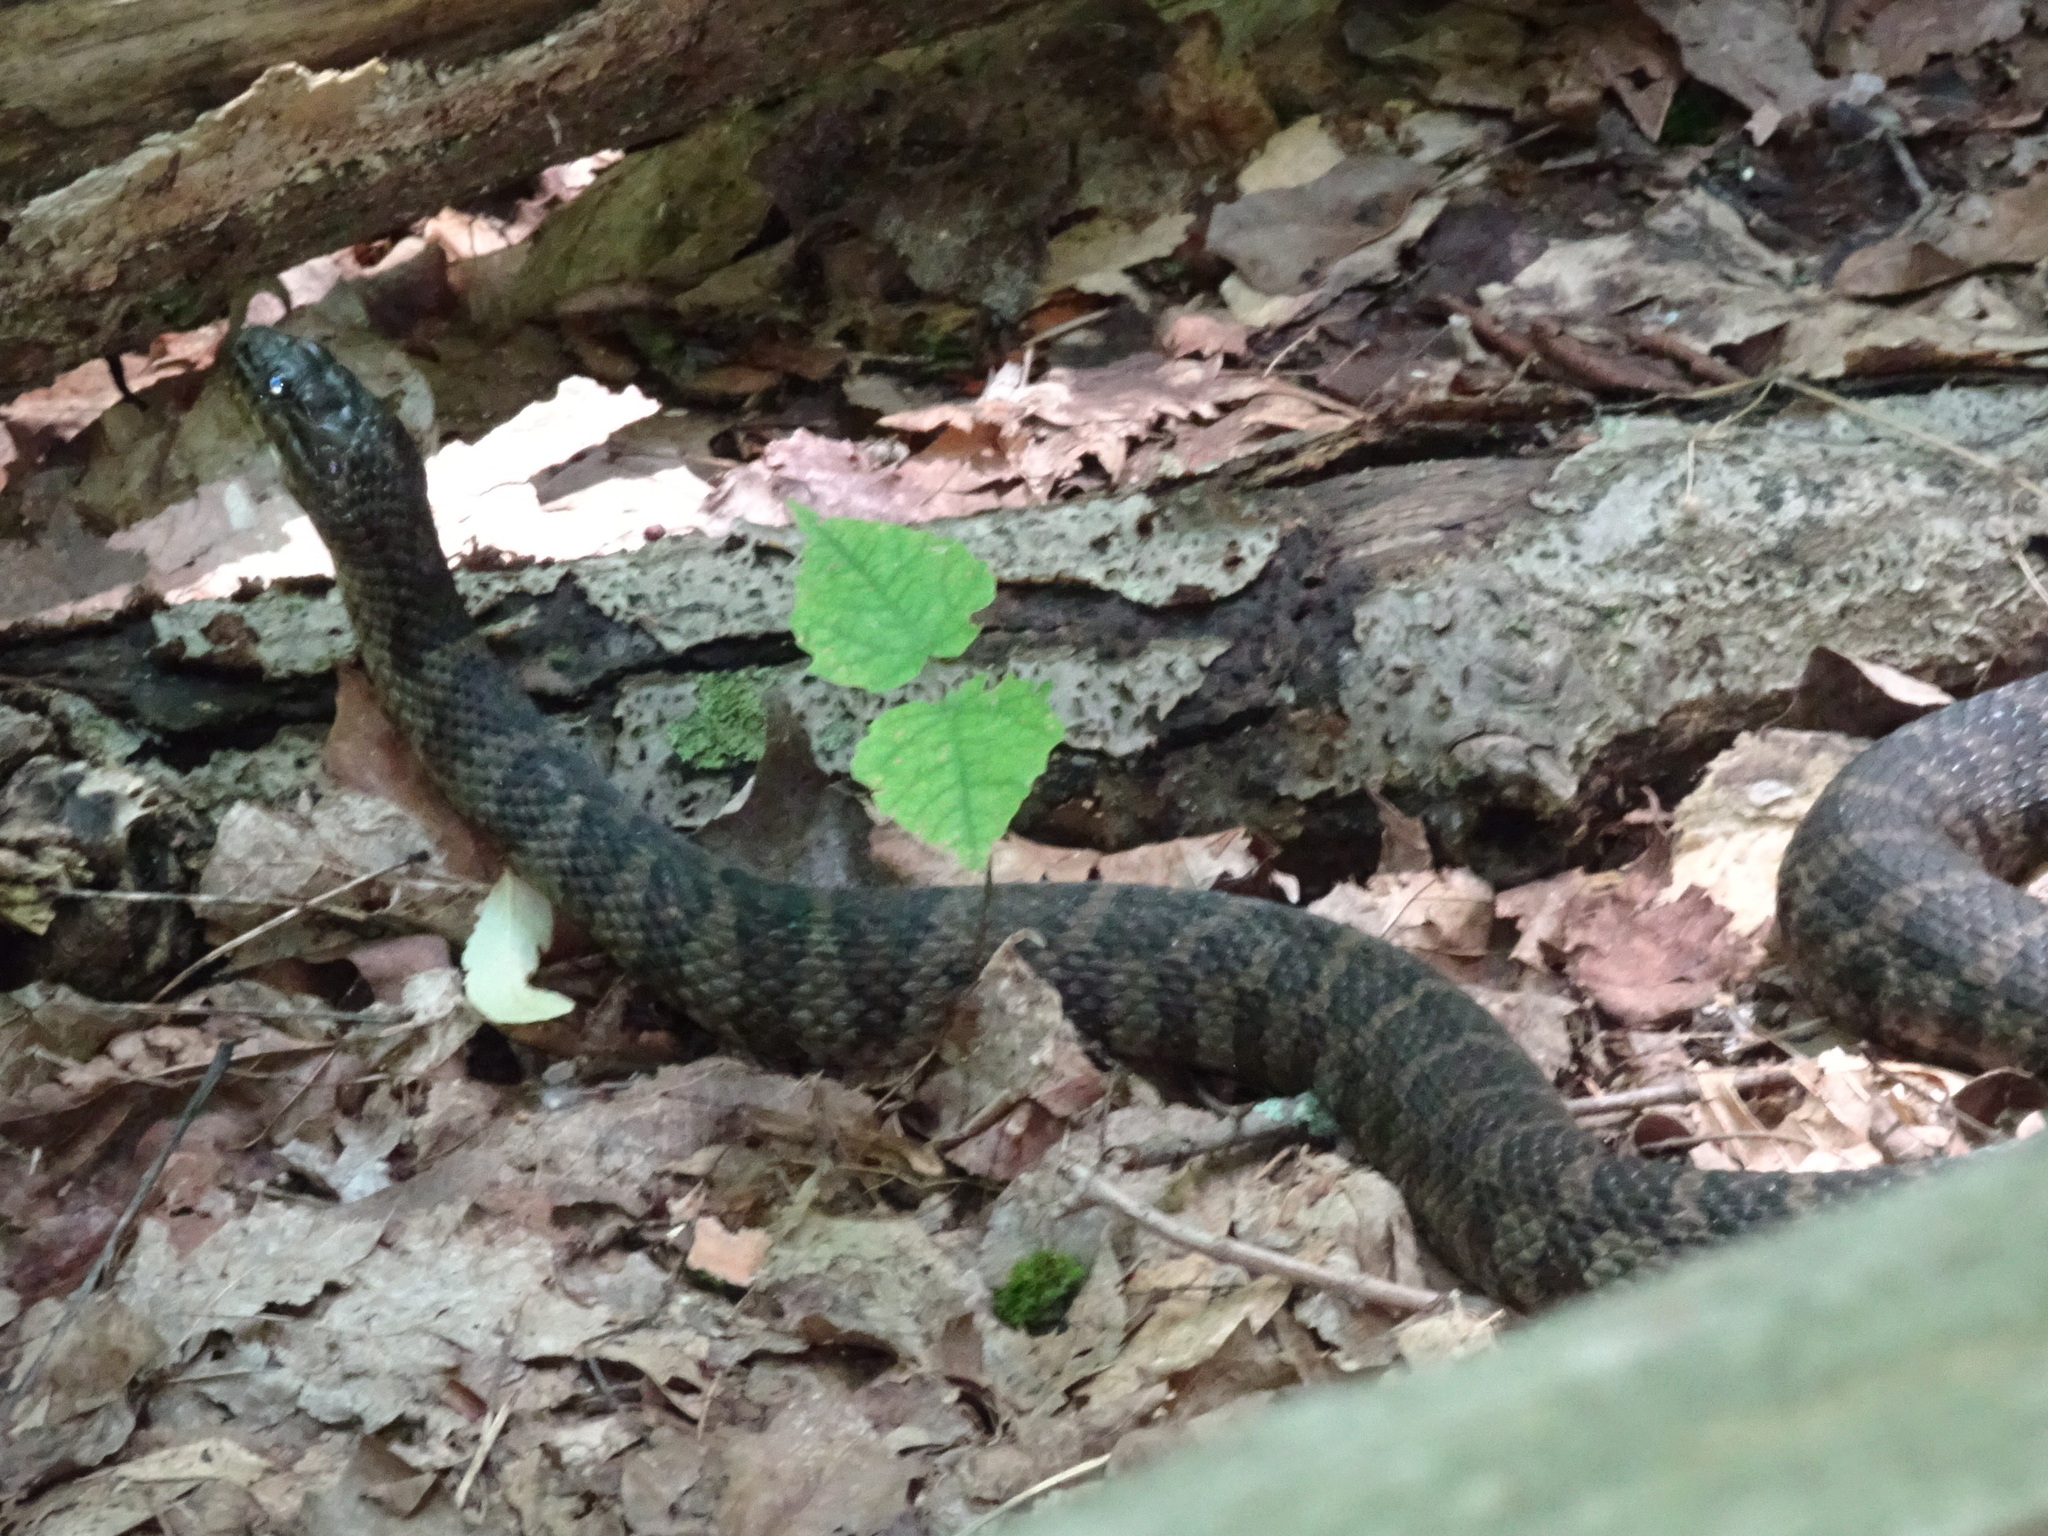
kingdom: Animalia
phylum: Chordata
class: Squamata
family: Colubridae
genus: Nerodia
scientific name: Nerodia sipedon
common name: Northern water snake
